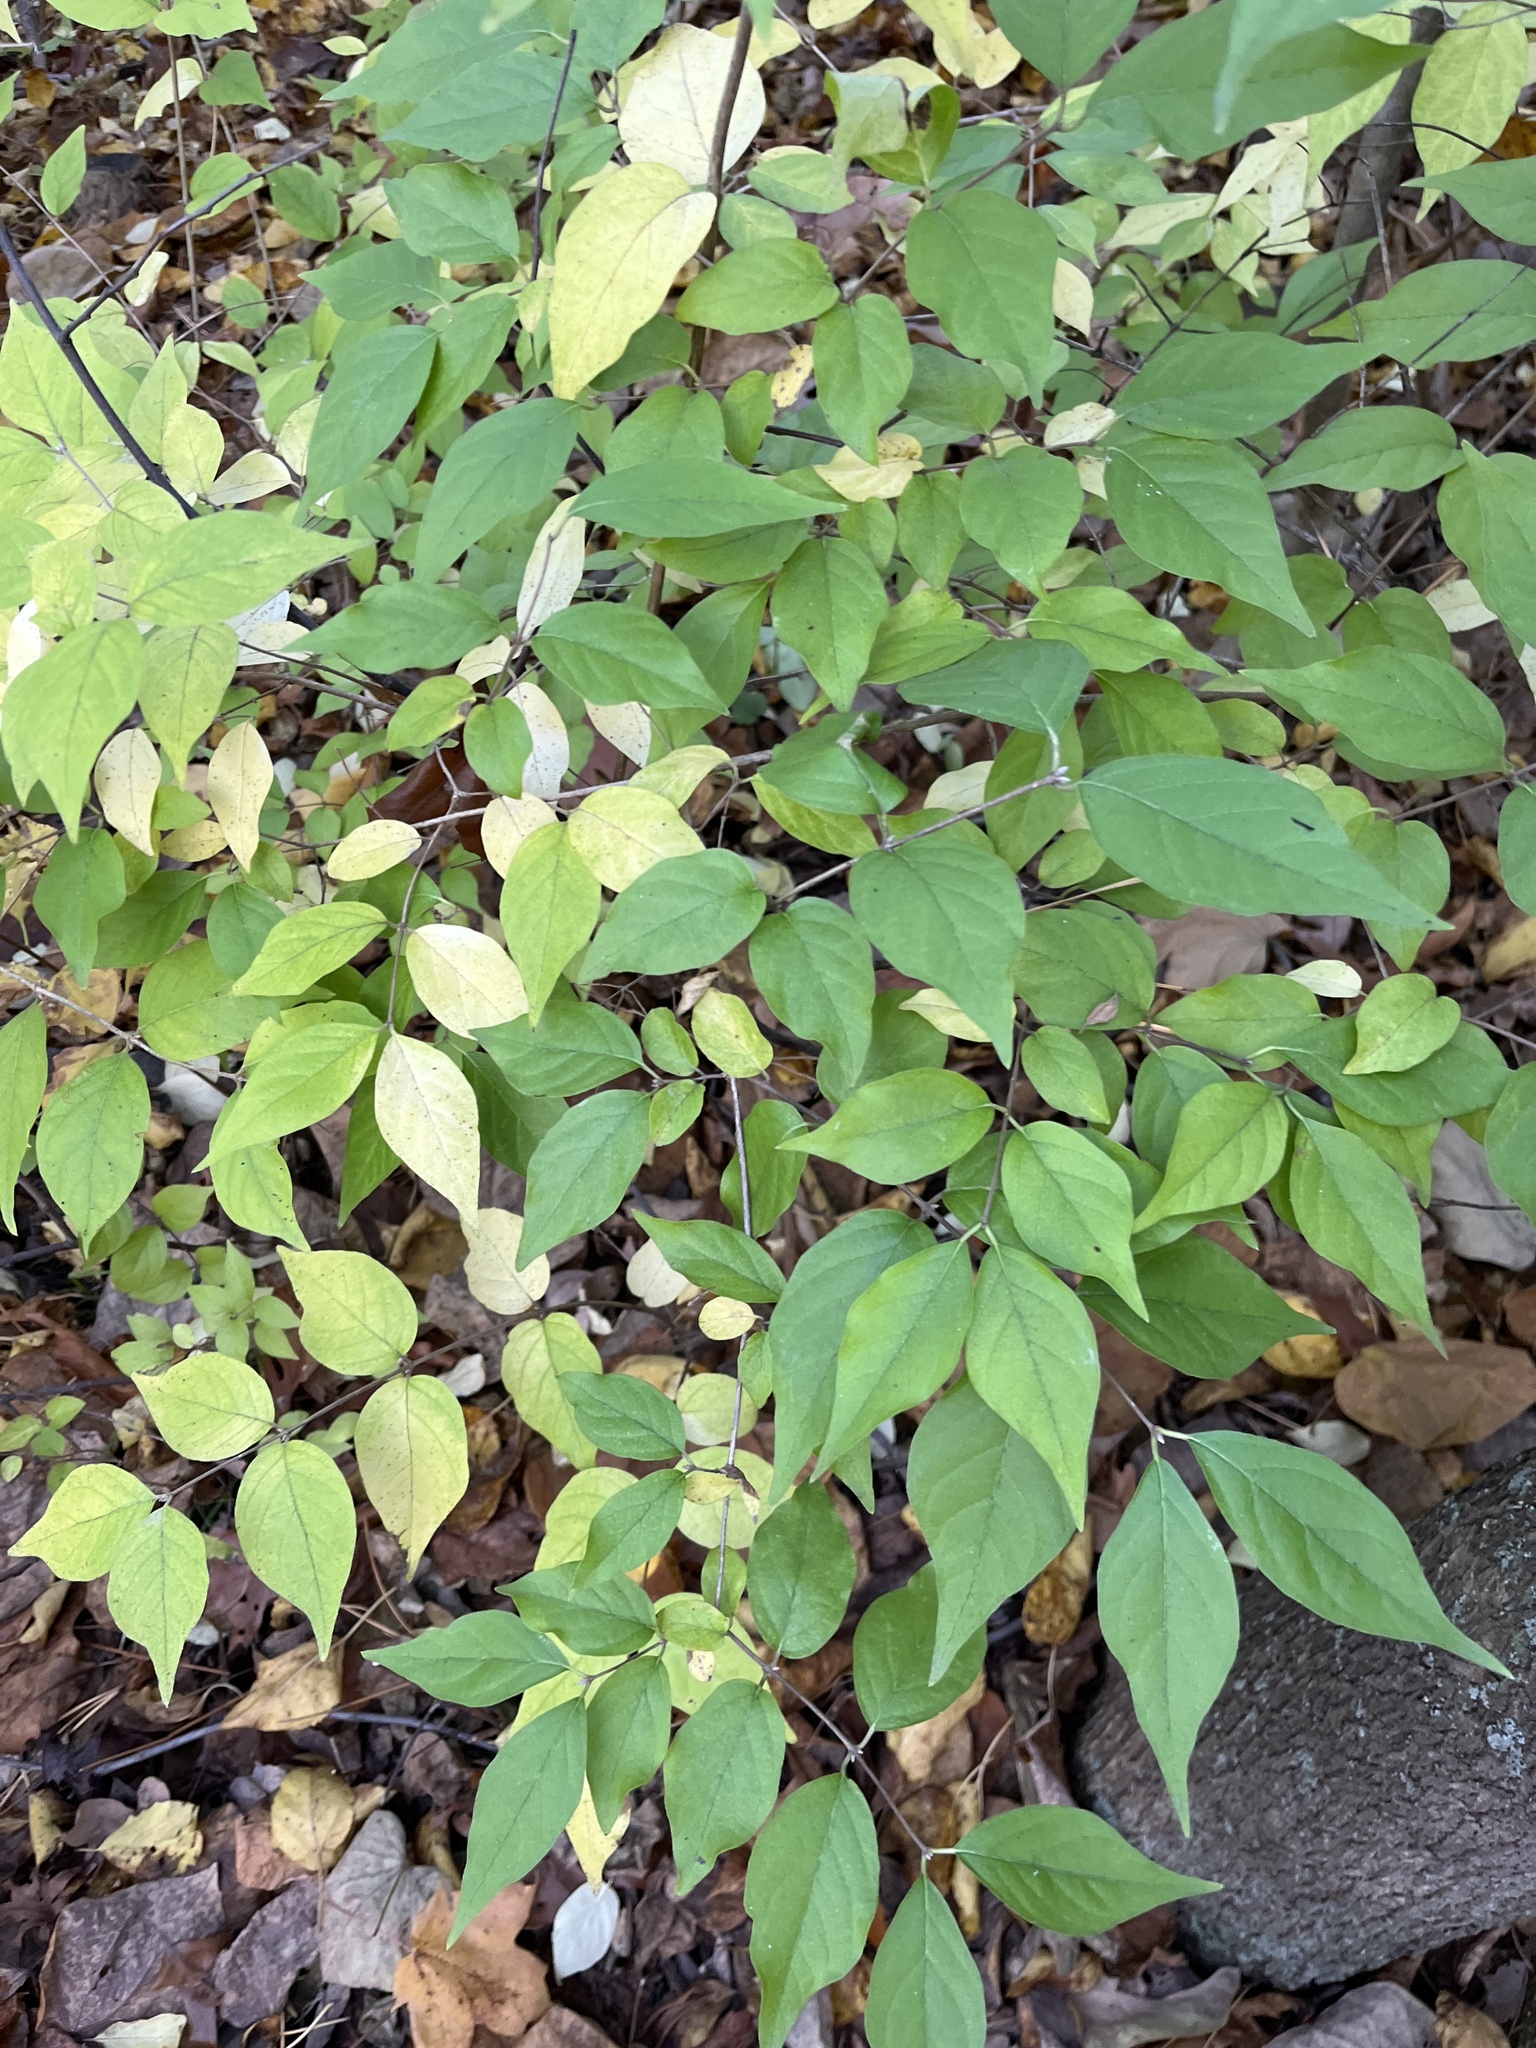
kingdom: Plantae
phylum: Tracheophyta
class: Magnoliopsida
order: Dipsacales
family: Caprifoliaceae
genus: Lonicera
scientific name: Lonicera maackii
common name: Amur honeysuckle
